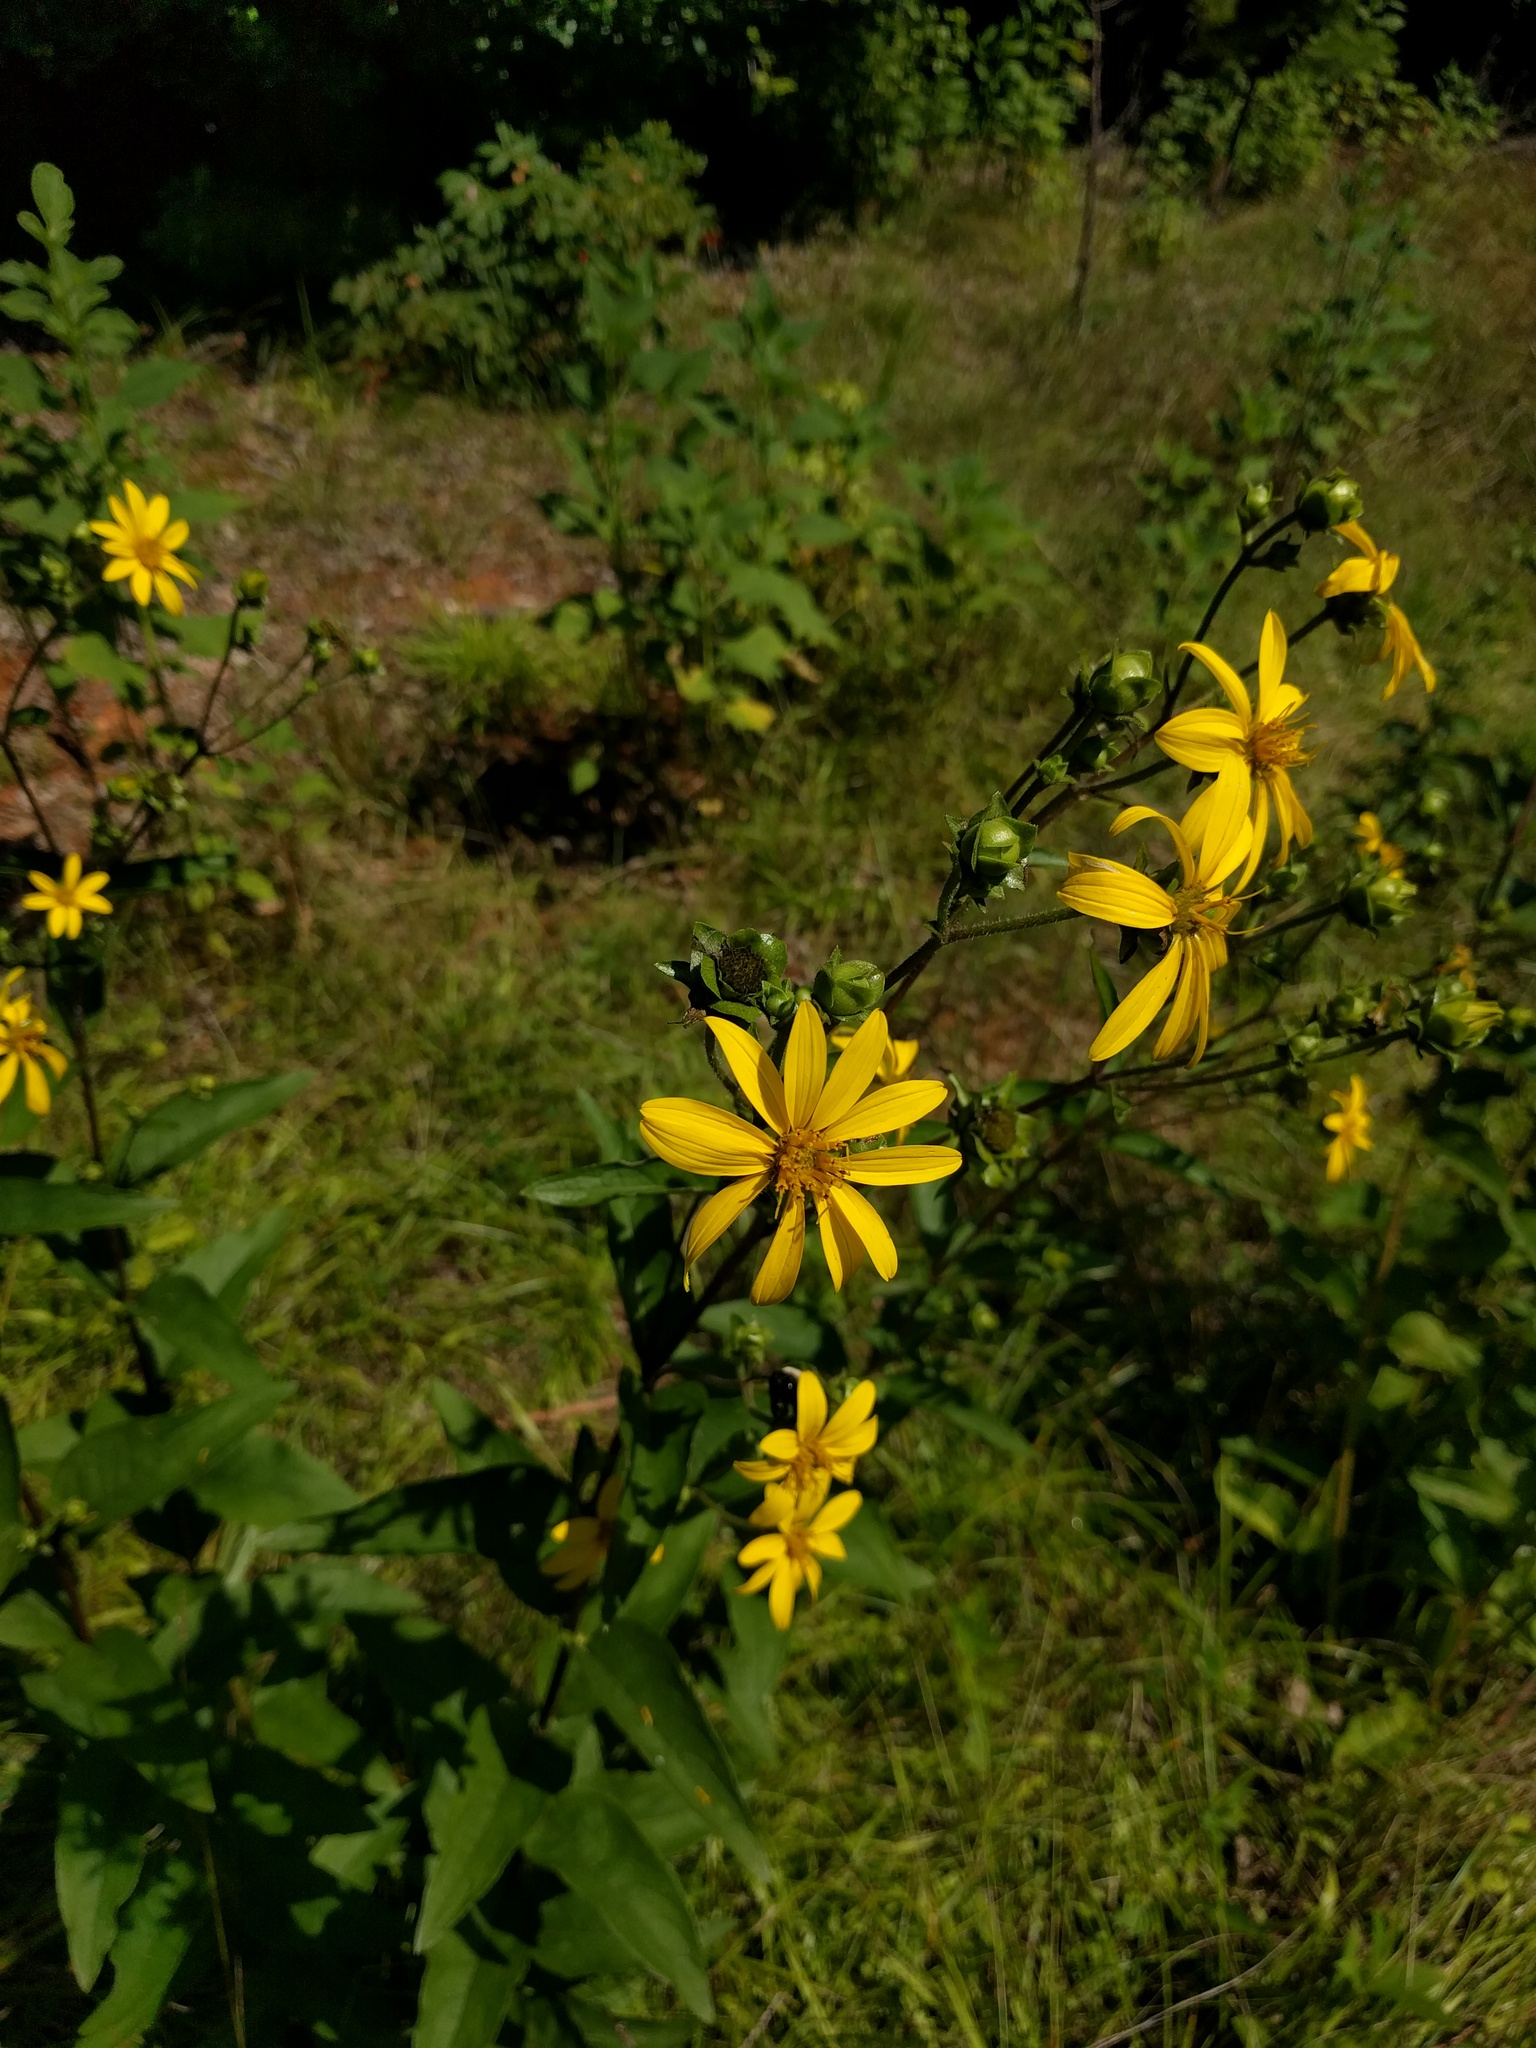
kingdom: Plantae
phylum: Tracheophyta
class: Magnoliopsida
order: Asterales
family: Asteraceae
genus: Silphium
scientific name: Silphium asteriscus
